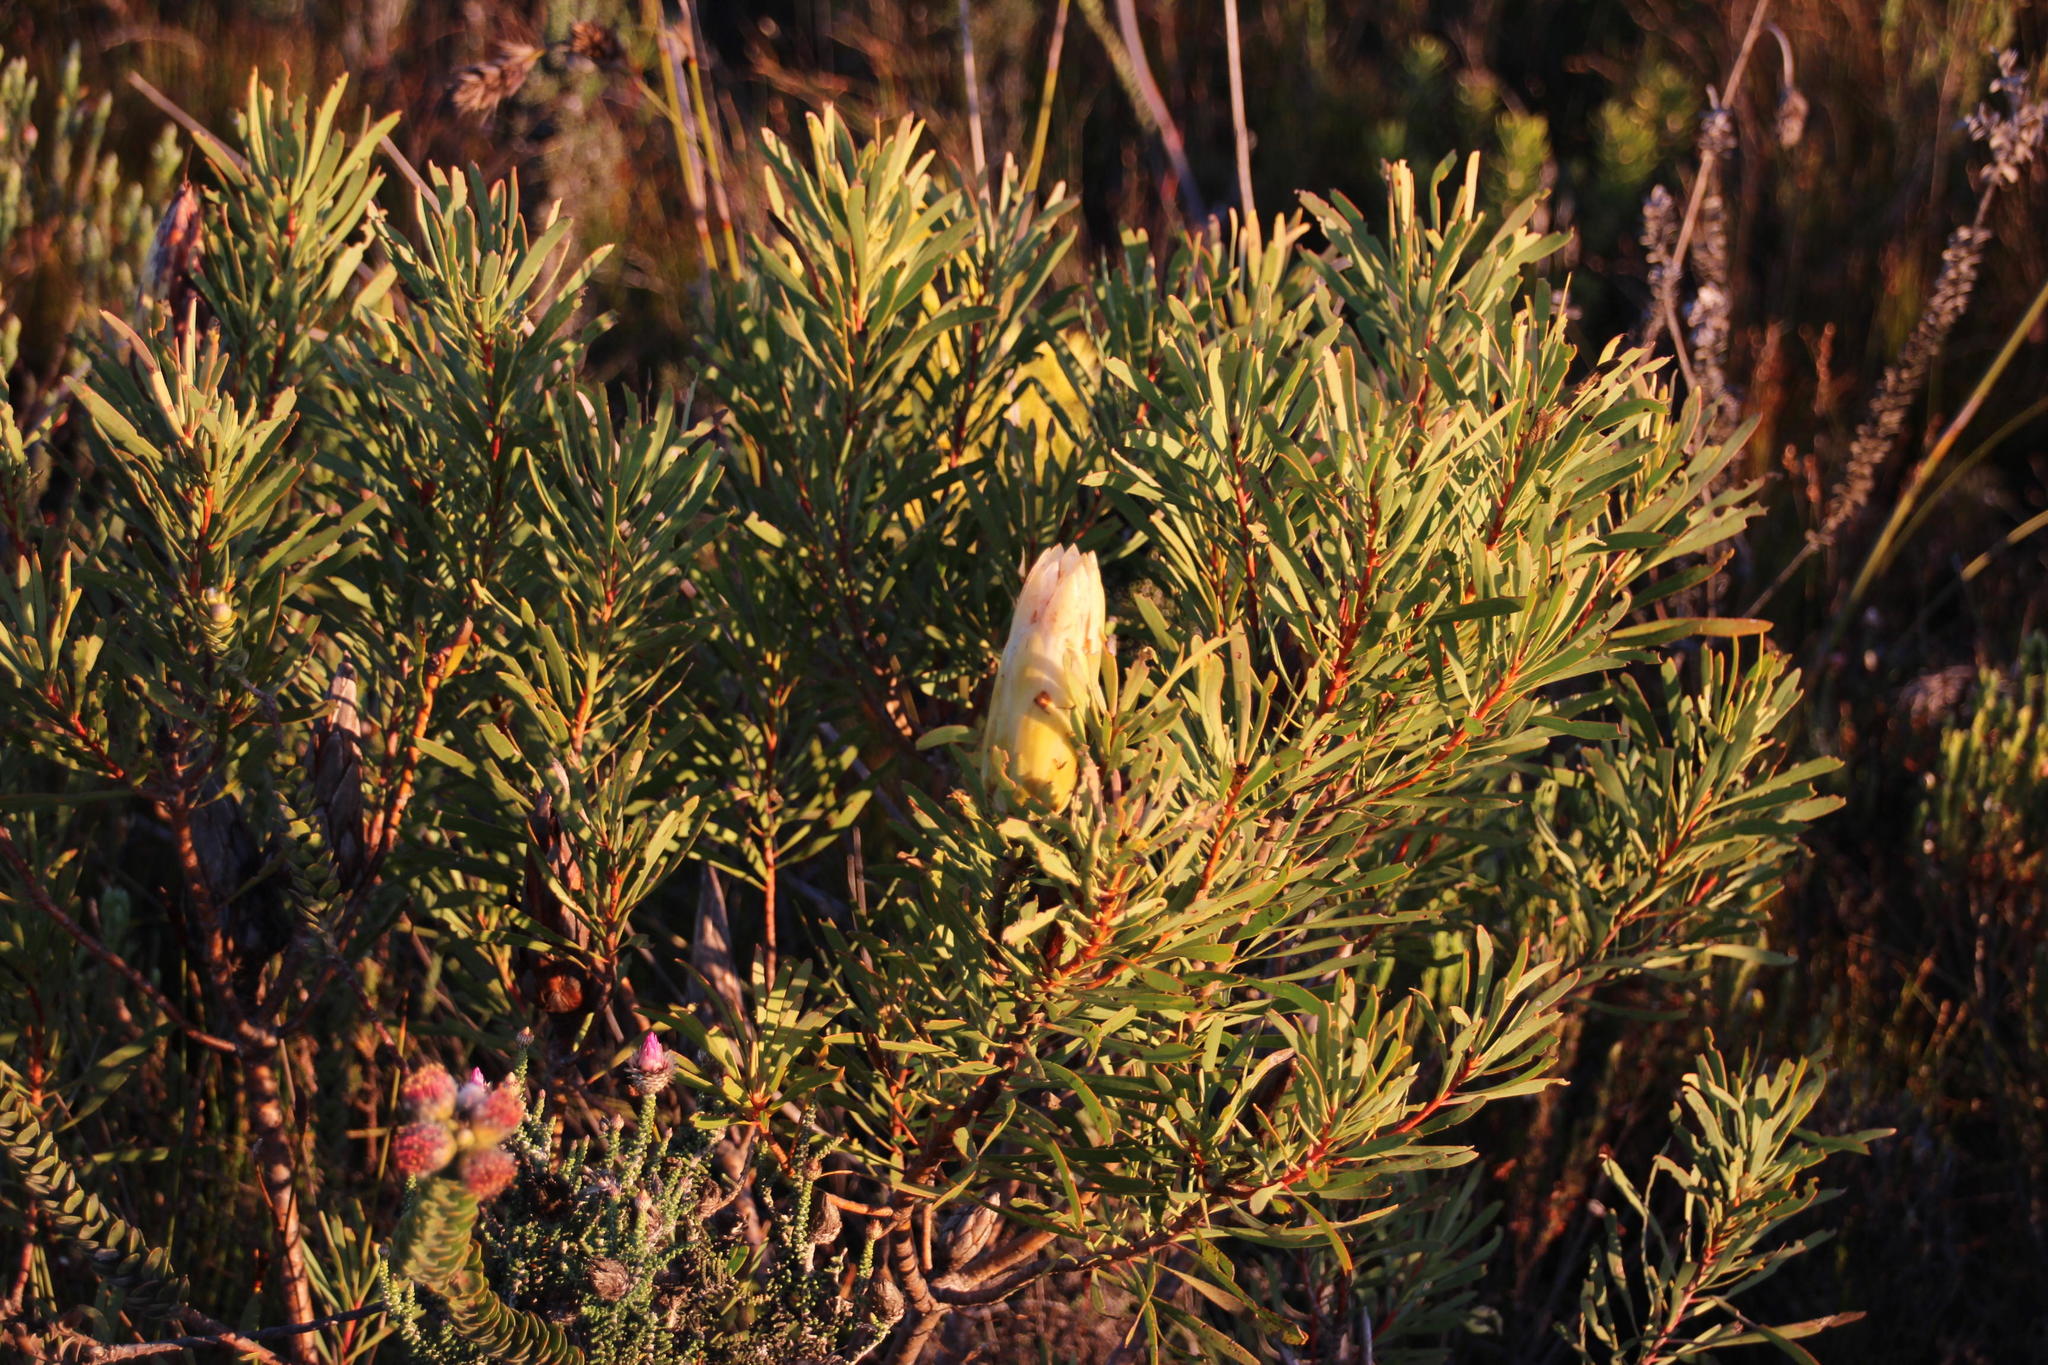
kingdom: Plantae
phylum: Tracheophyta
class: Magnoliopsida
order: Proteales
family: Proteaceae
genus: Protea
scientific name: Protea repens
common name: Sugarbush
